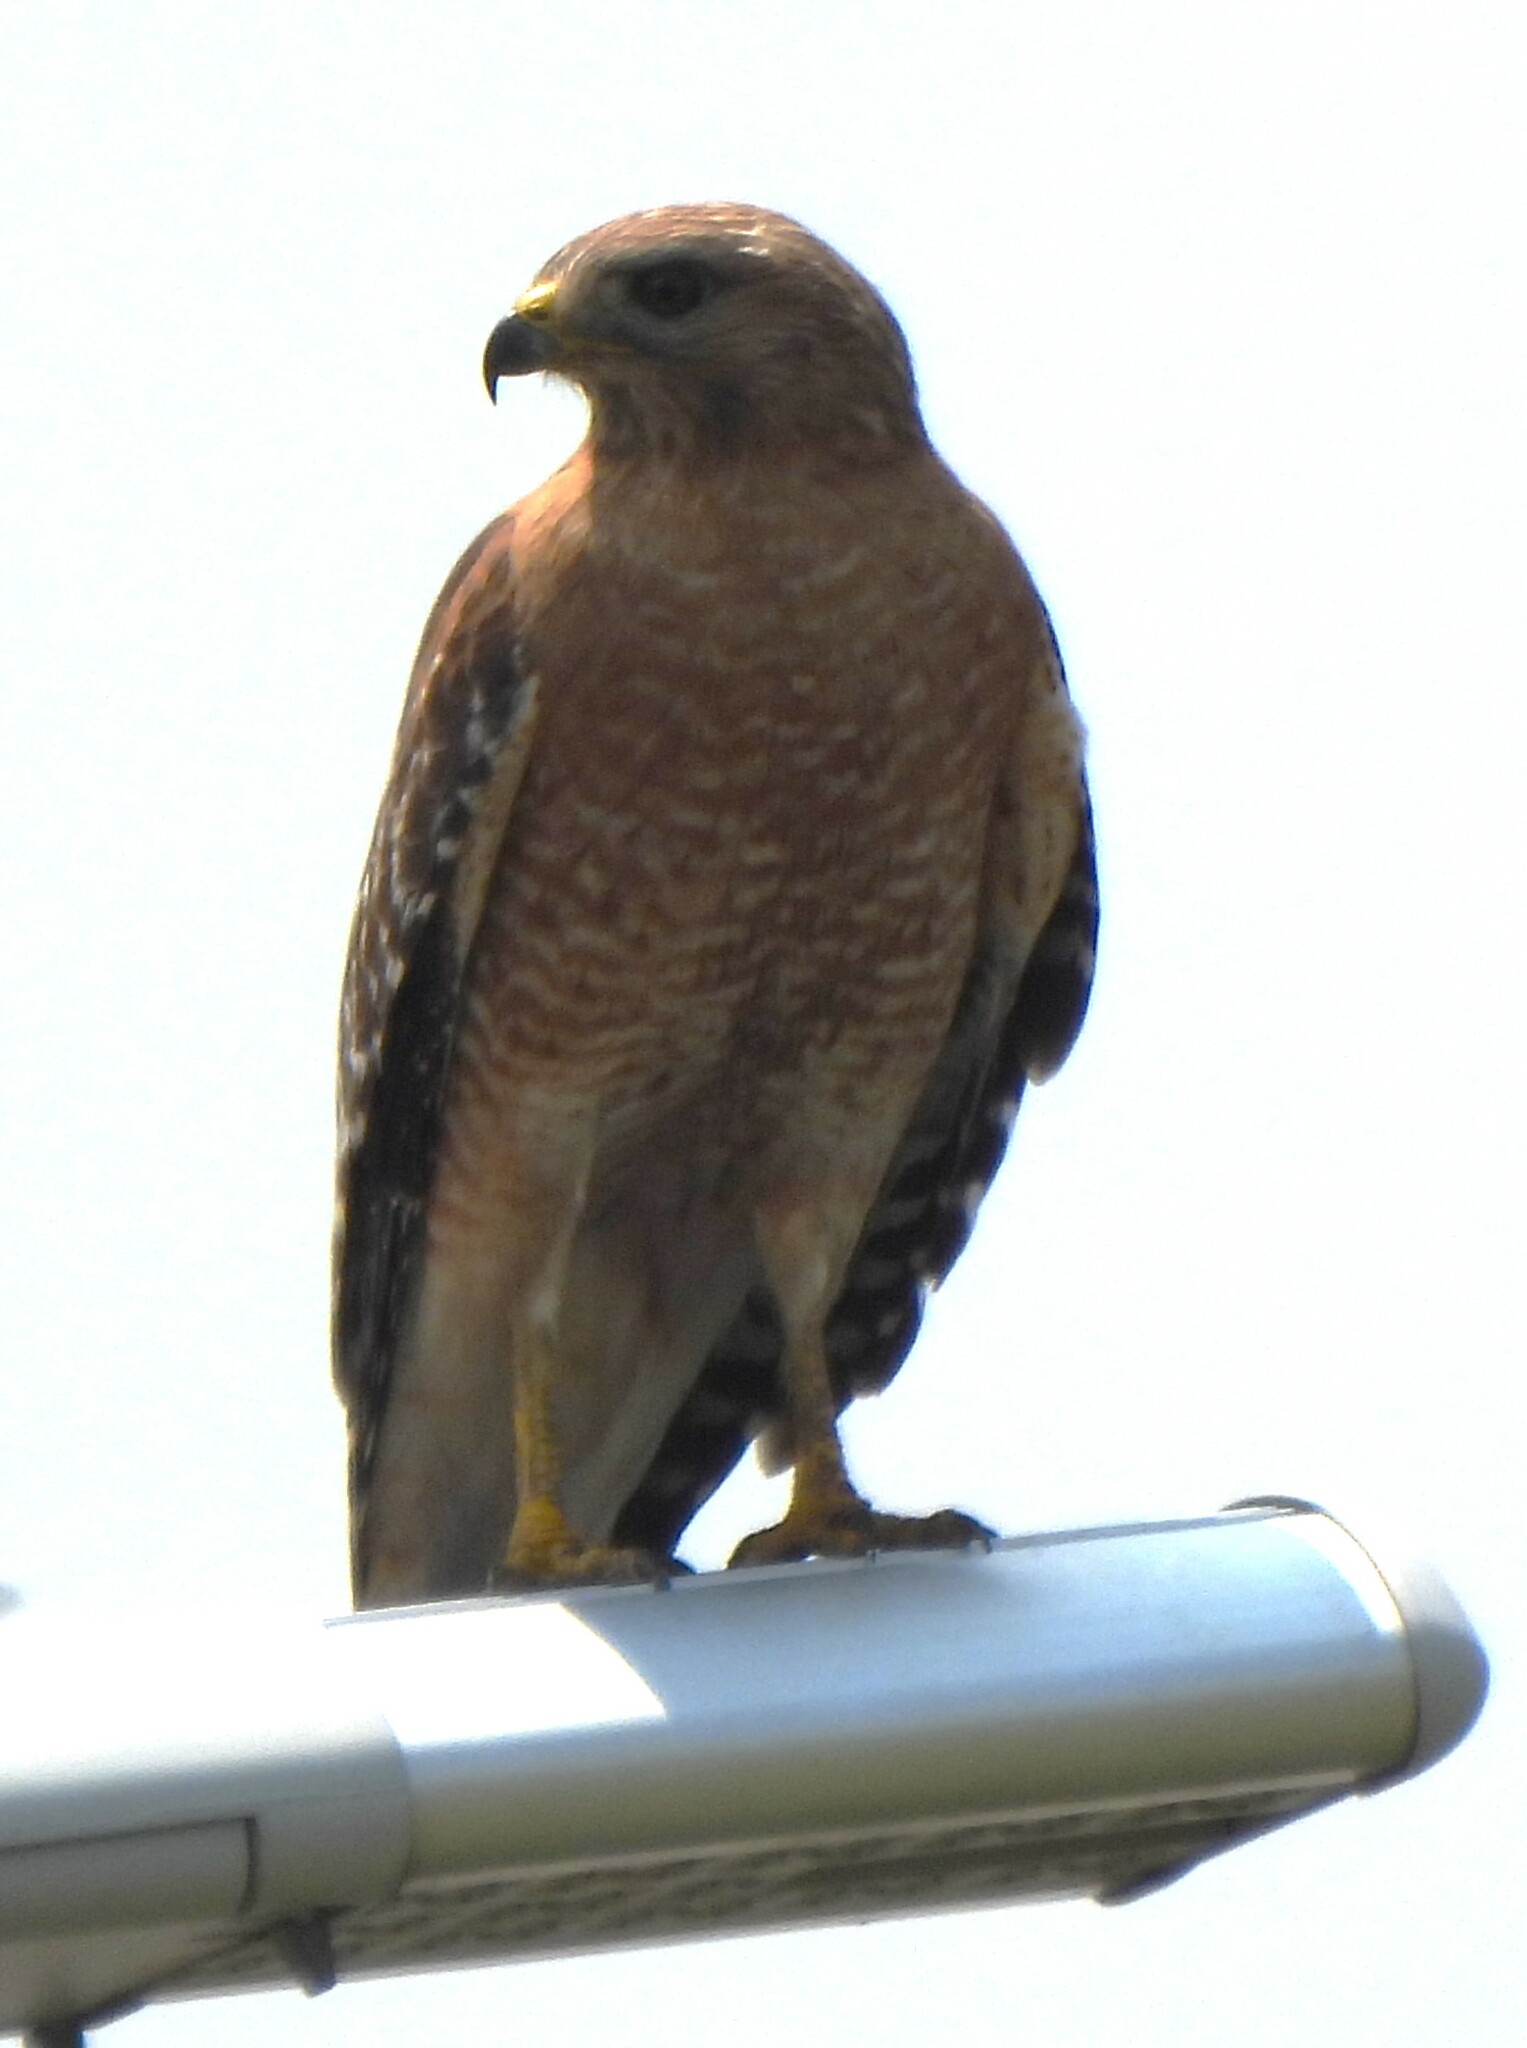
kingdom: Animalia
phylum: Chordata
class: Aves
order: Accipitriformes
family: Accipitridae
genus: Buteo
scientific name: Buteo lineatus
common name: Red-shouldered hawk
